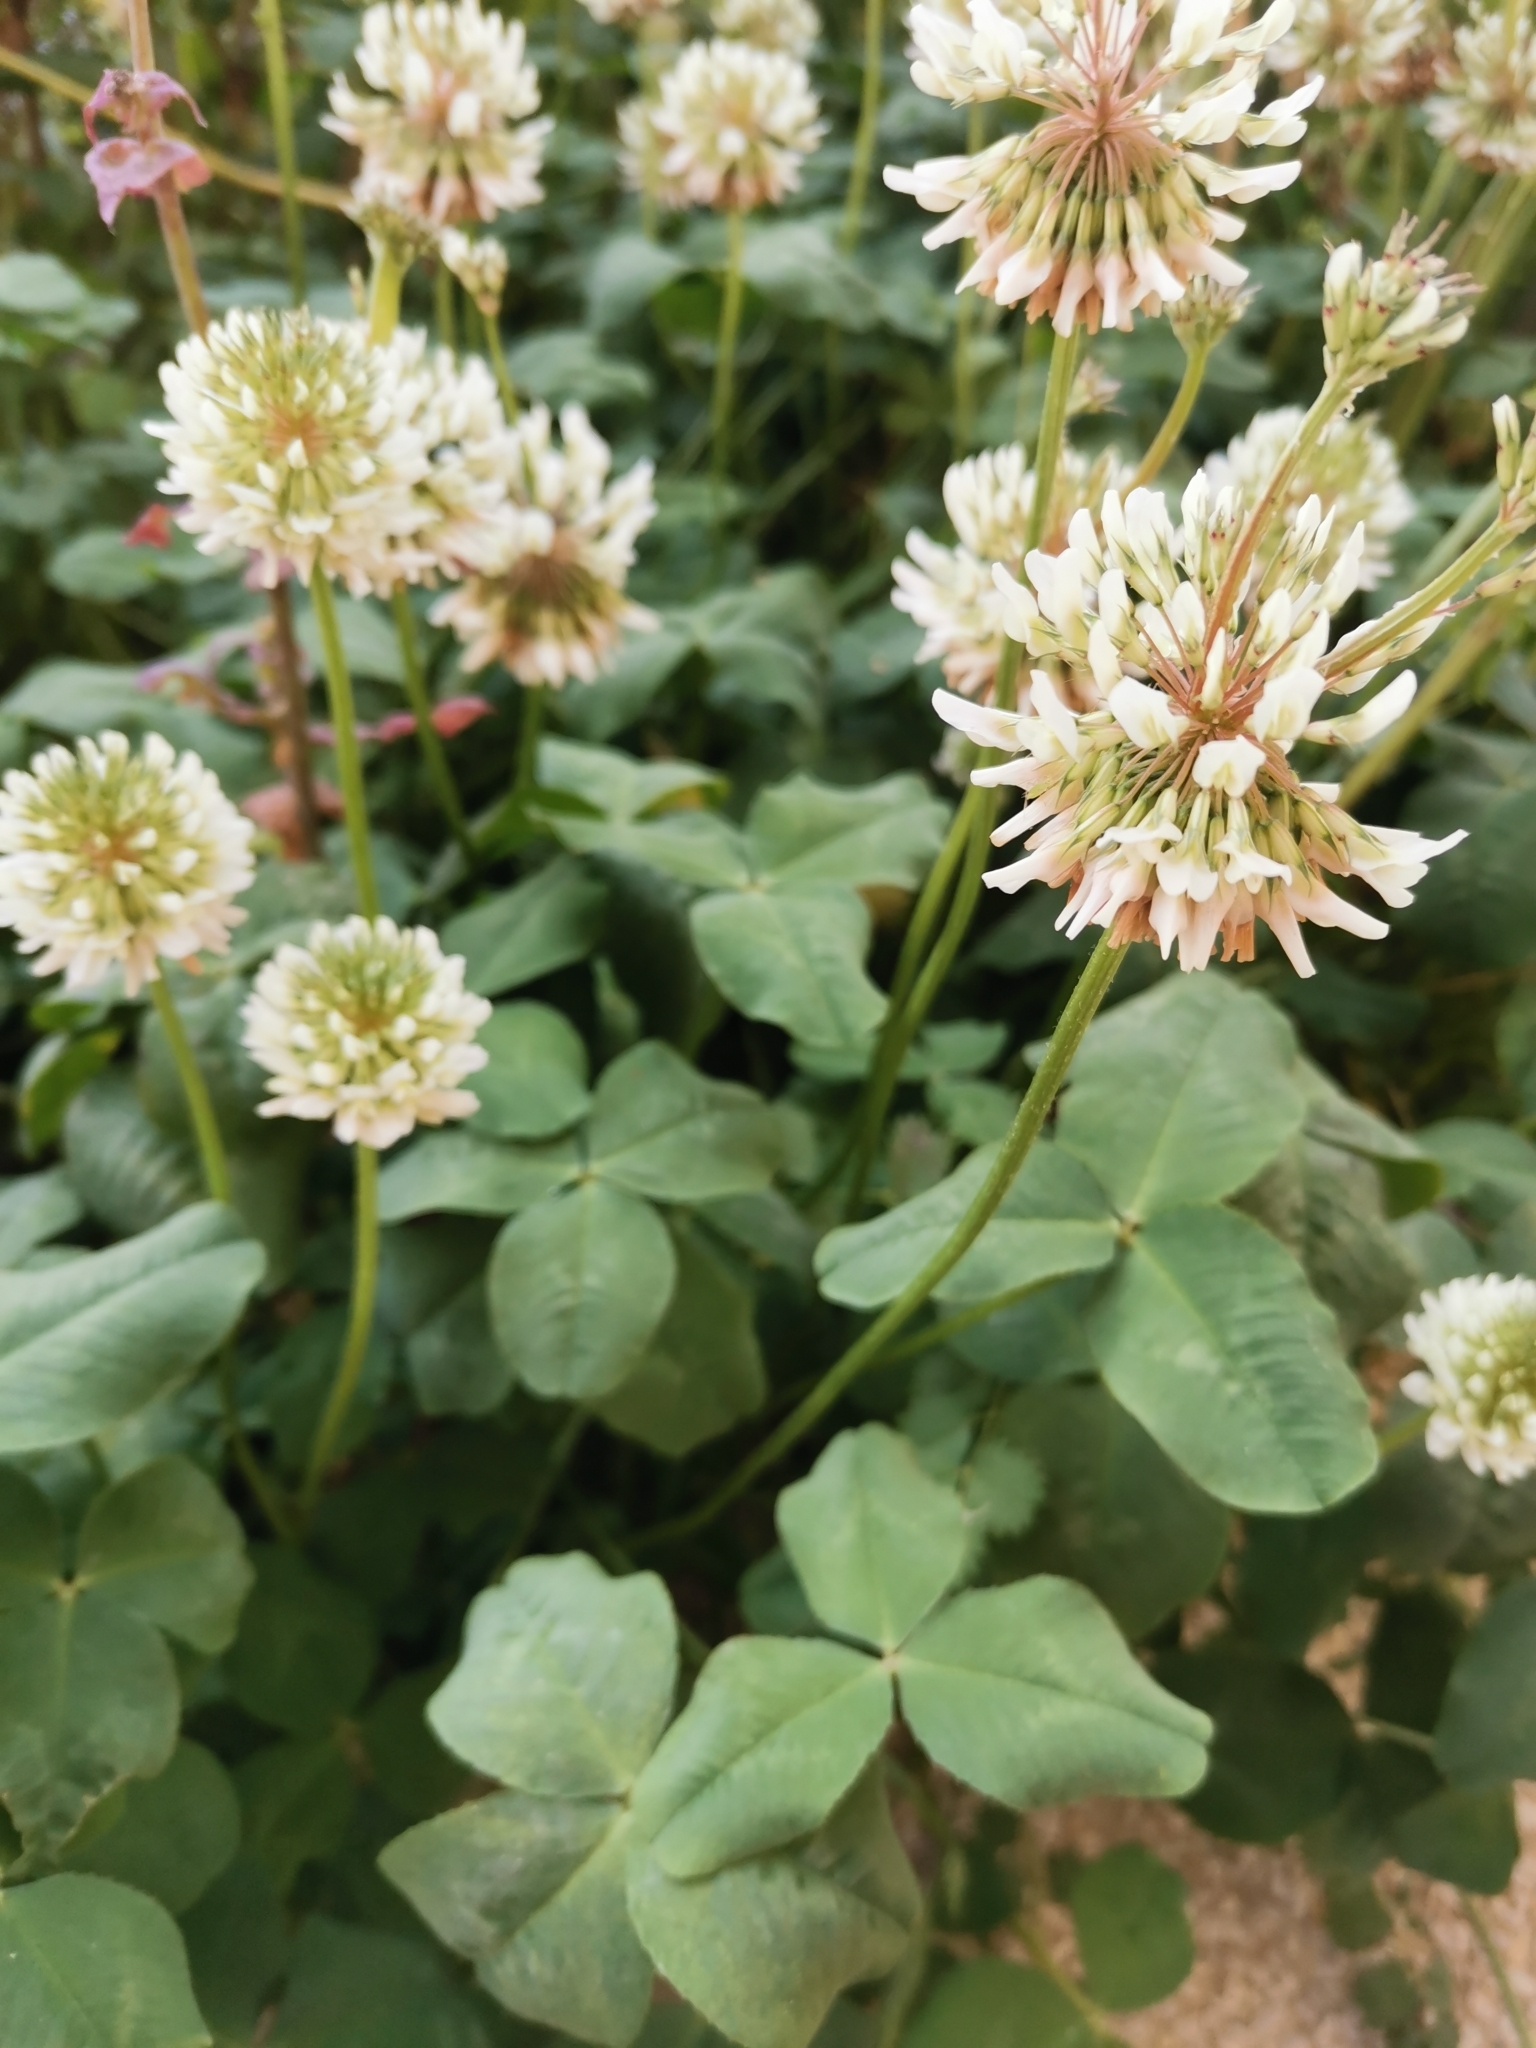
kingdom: Plantae
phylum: Tracheophyta
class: Magnoliopsida
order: Fabales
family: Fabaceae
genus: Trifolium
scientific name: Trifolium repens
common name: White clover
